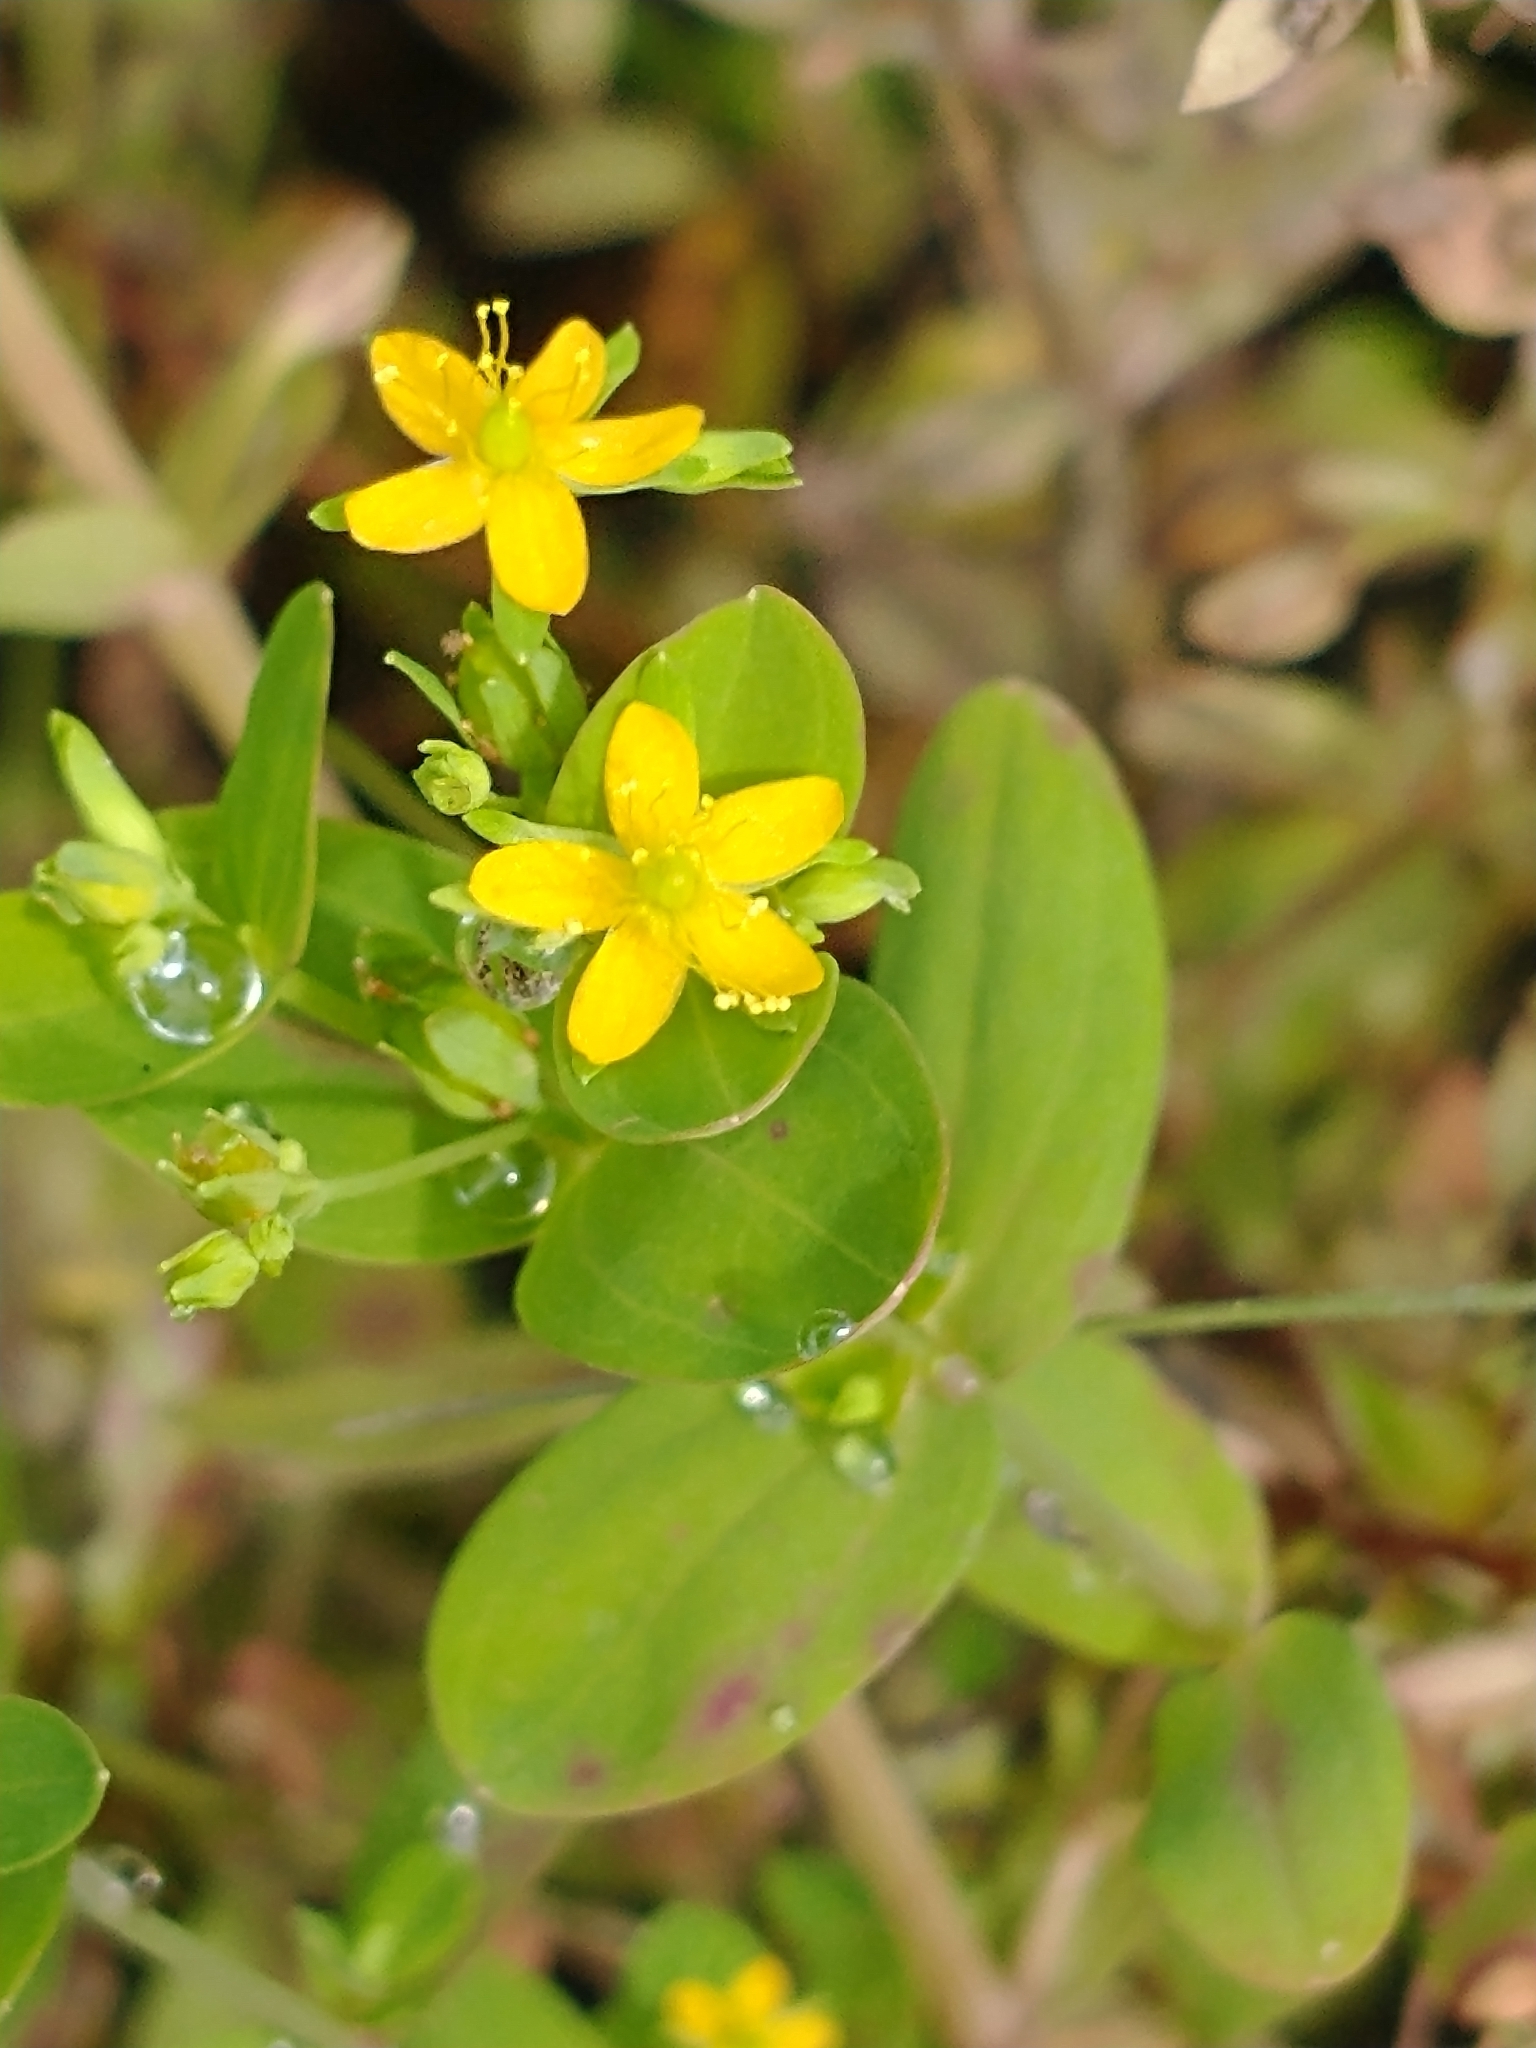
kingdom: Plantae
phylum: Tracheophyta
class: Magnoliopsida
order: Malpighiales
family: Hypericaceae
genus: Hypericum
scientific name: Hypericum mutilum
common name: Dwarf st. john's-wort
